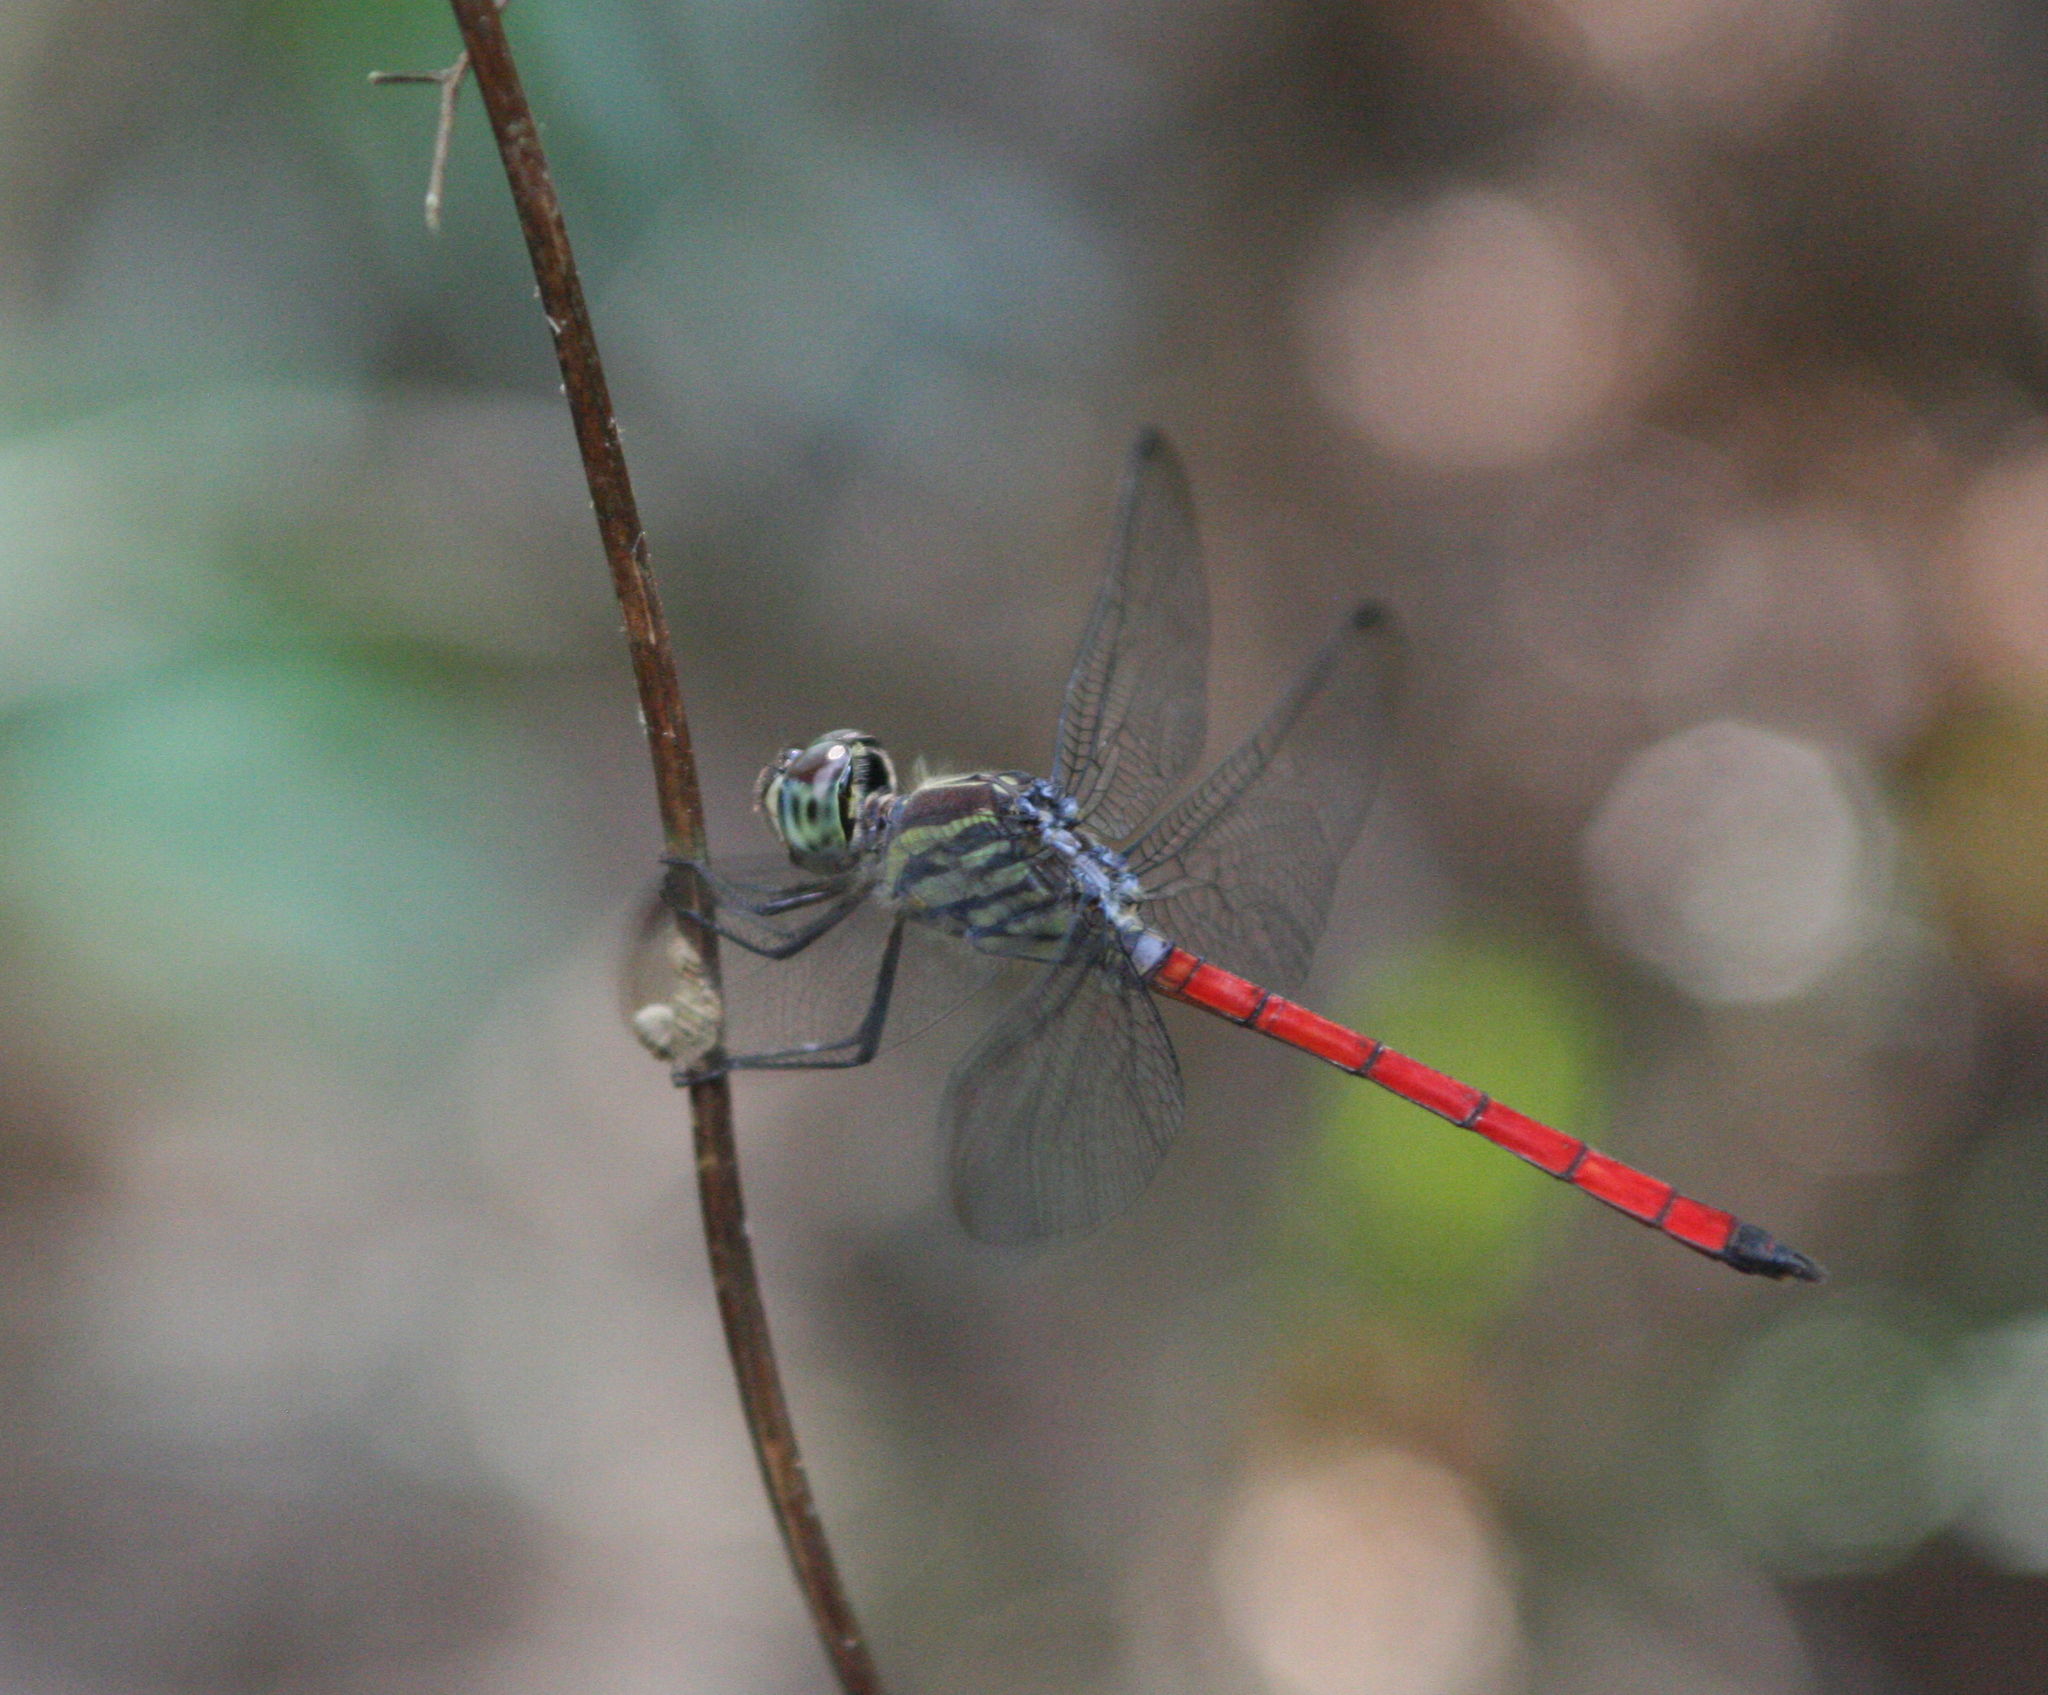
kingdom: Animalia
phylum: Arthropoda
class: Insecta
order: Odonata
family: Libellulidae
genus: Lathrecista
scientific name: Lathrecista asiatica
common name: Scarlet grenadier
